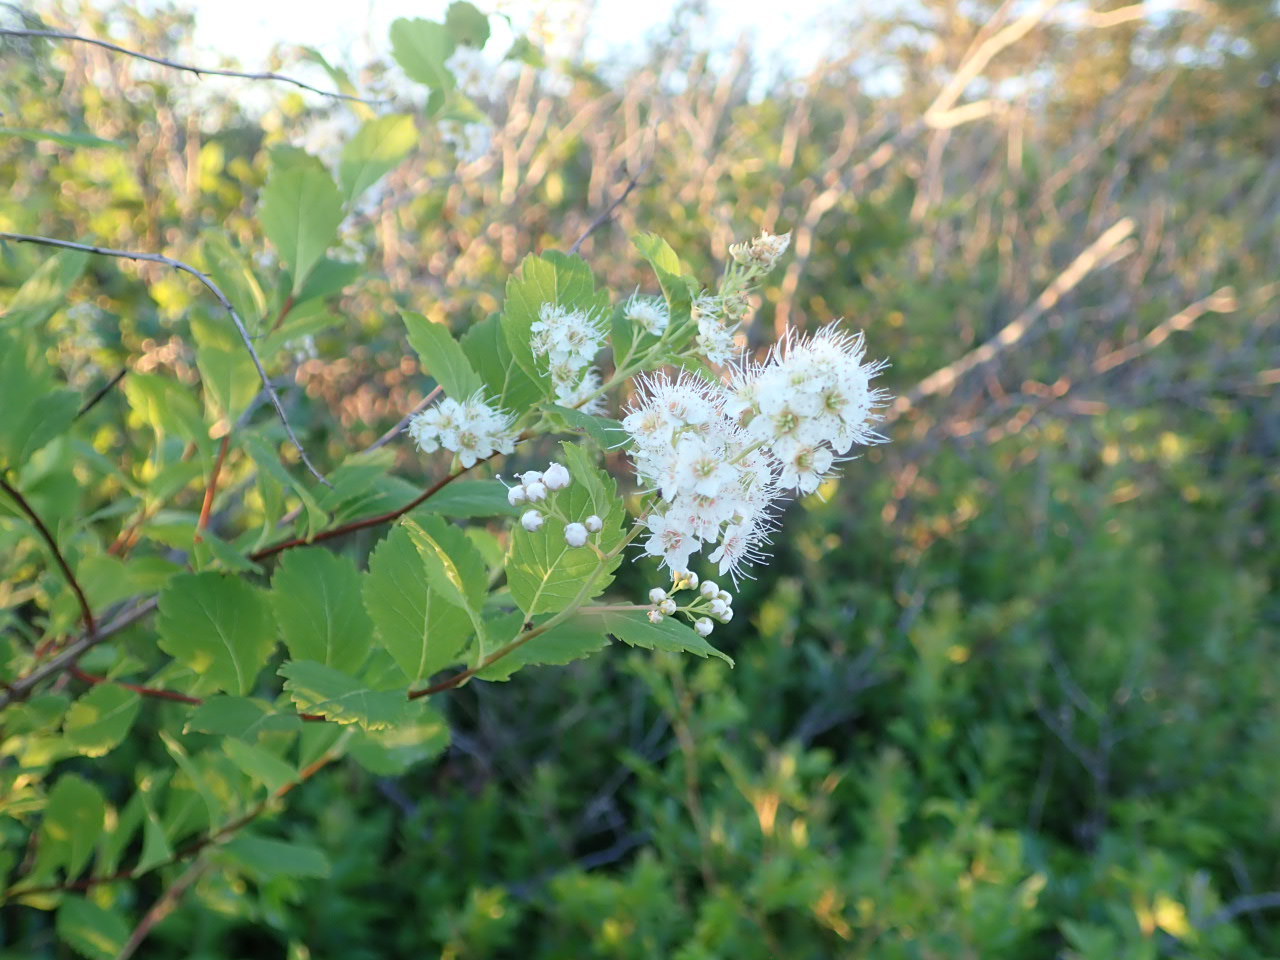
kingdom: Plantae
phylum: Tracheophyta
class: Magnoliopsida
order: Rosales
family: Rosaceae
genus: Spiraea
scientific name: Spiraea alba
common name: Pale bridewort
